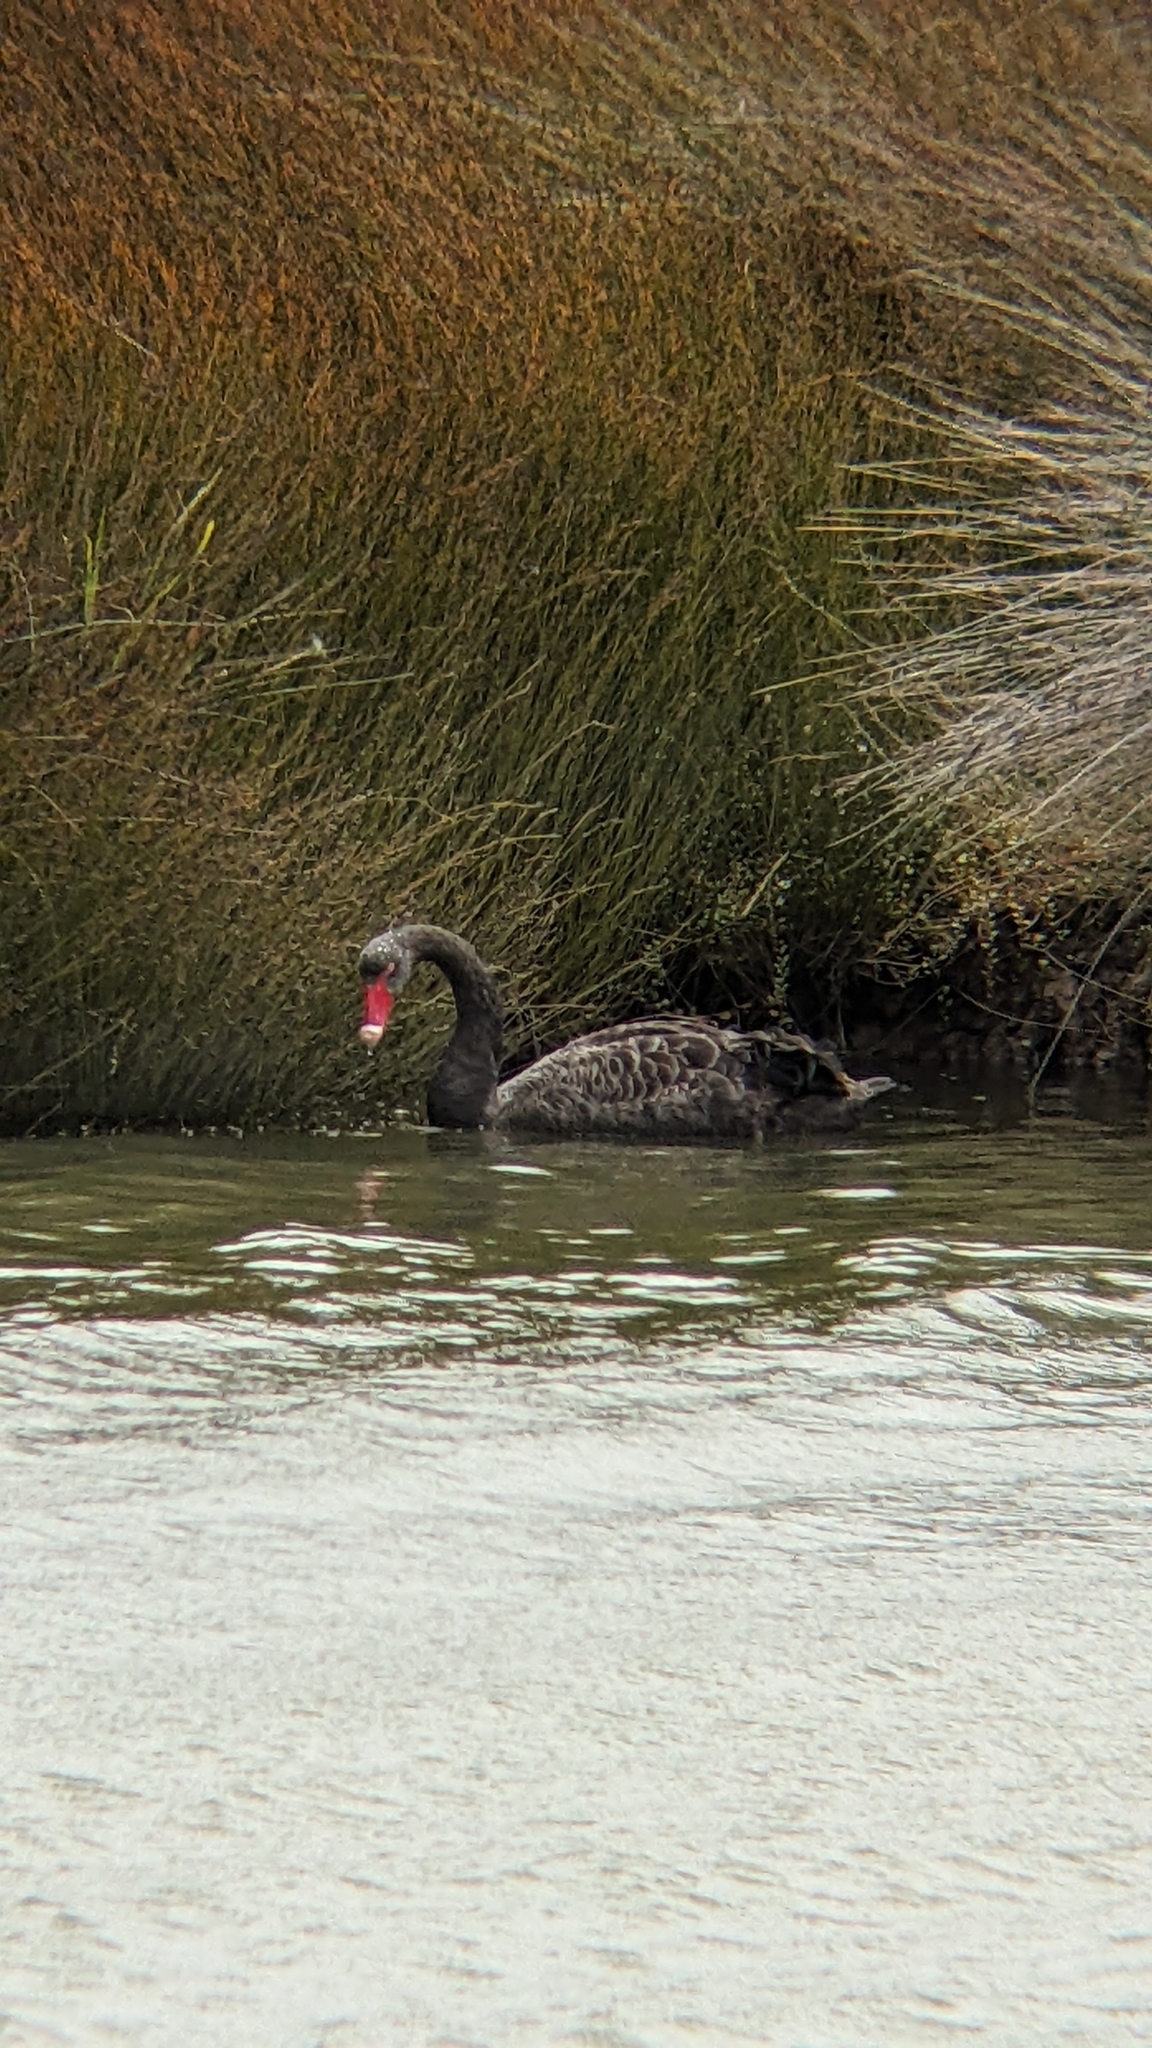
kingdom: Animalia
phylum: Chordata
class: Aves
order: Anseriformes
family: Anatidae
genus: Cygnus
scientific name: Cygnus atratus
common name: Black swan
